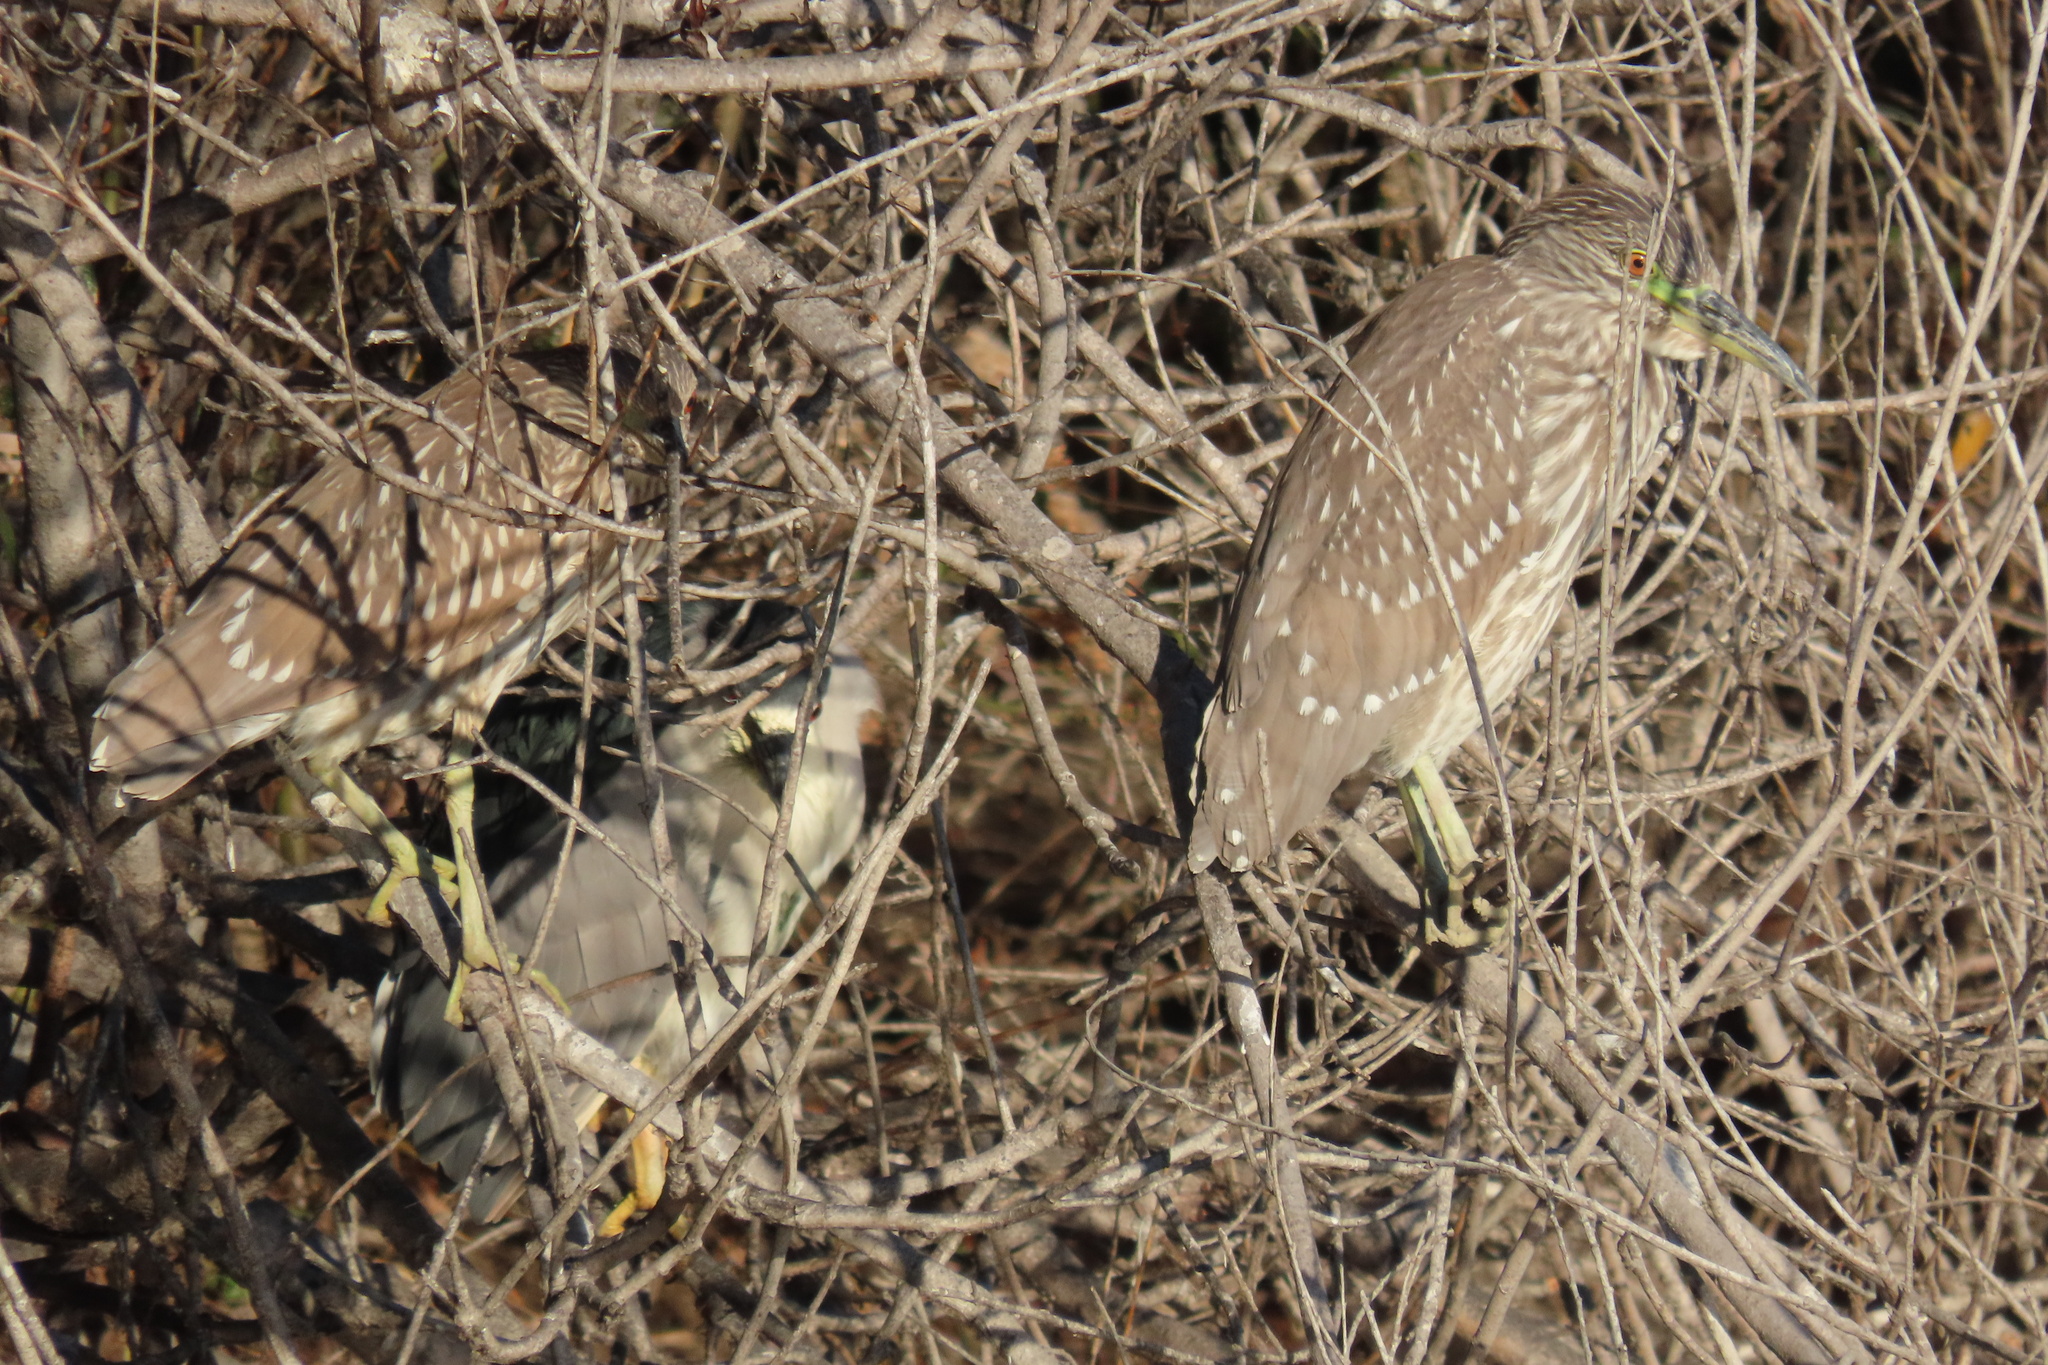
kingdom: Animalia
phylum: Chordata
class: Aves
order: Pelecaniformes
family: Ardeidae
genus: Nycticorax
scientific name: Nycticorax nycticorax
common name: Black-crowned night heron
